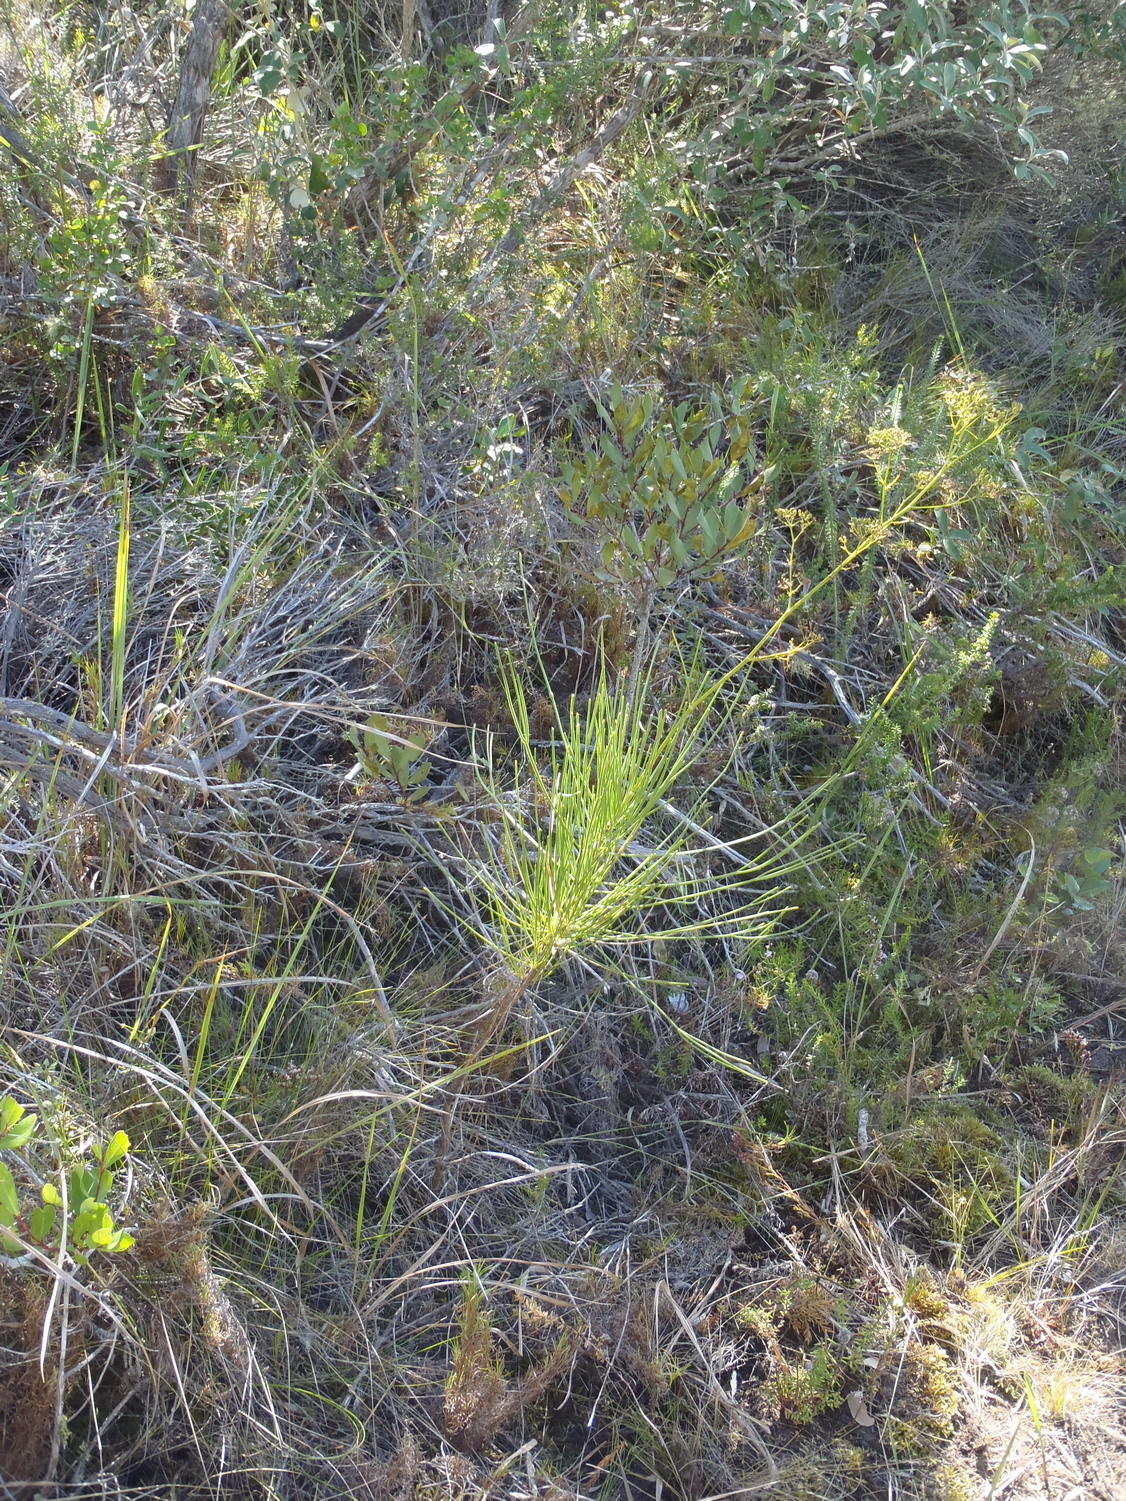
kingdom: Plantae
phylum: Tracheophyta
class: Magnoliopsida
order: Apiales
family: Apiaceae
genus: Anginon
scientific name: Anginon difforme
